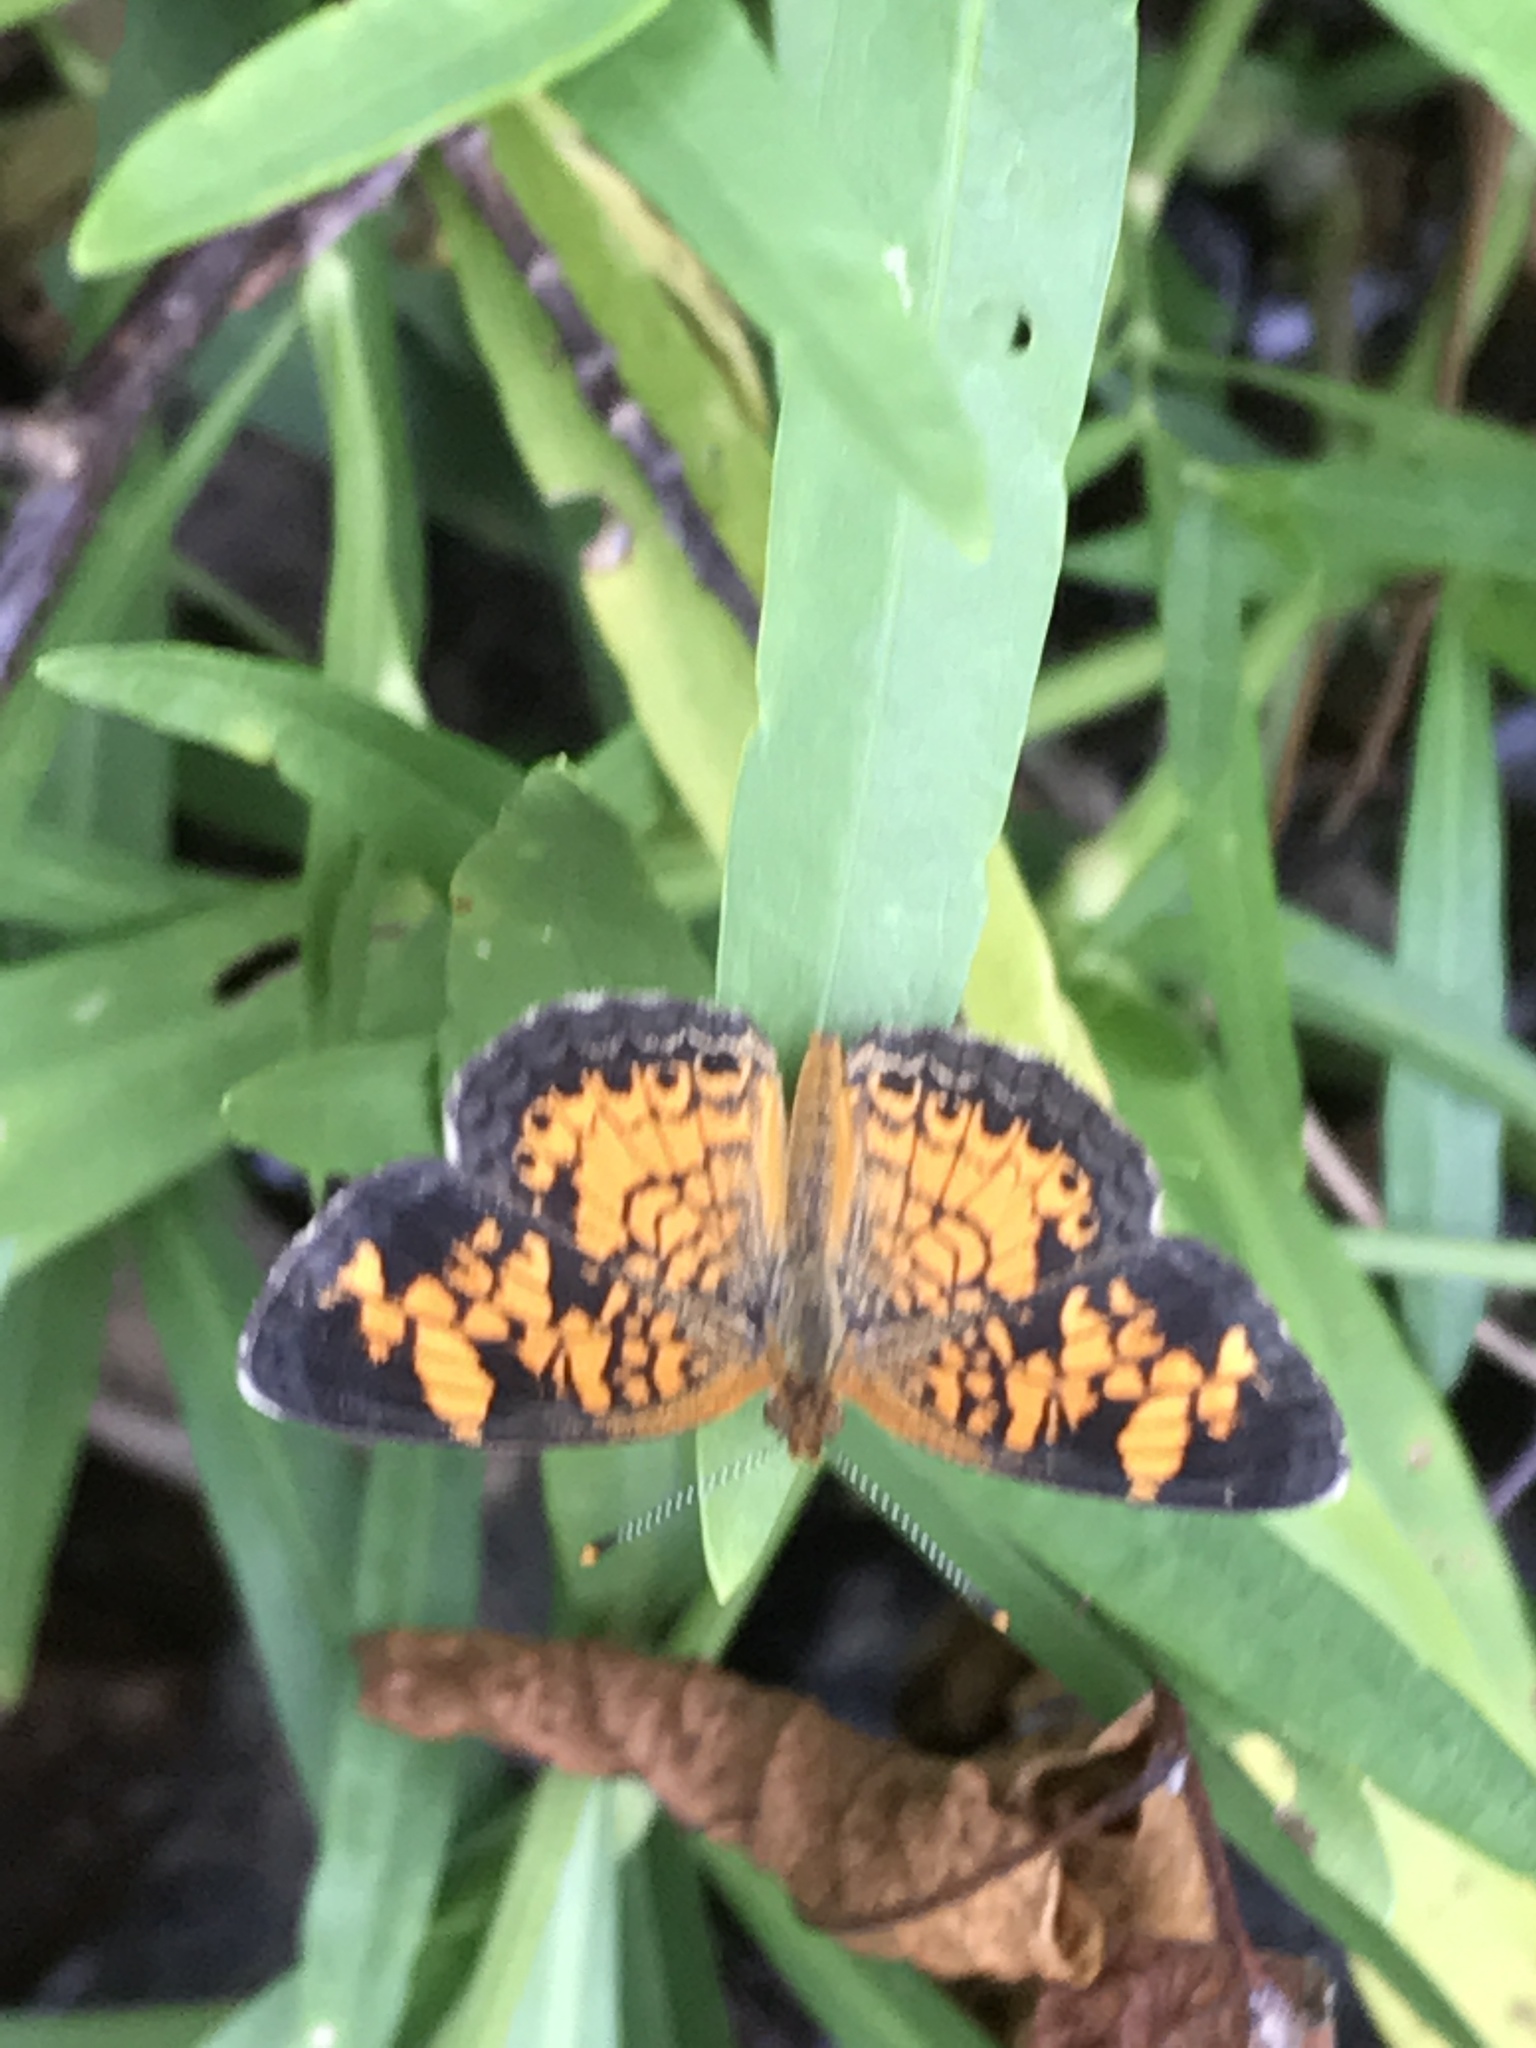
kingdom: Animalia
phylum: Arthropoda
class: Insecta
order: Lepidoptera
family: Nymphalidae
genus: Phyciodes
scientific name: Phyciodes tharos
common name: Pearl crescent
